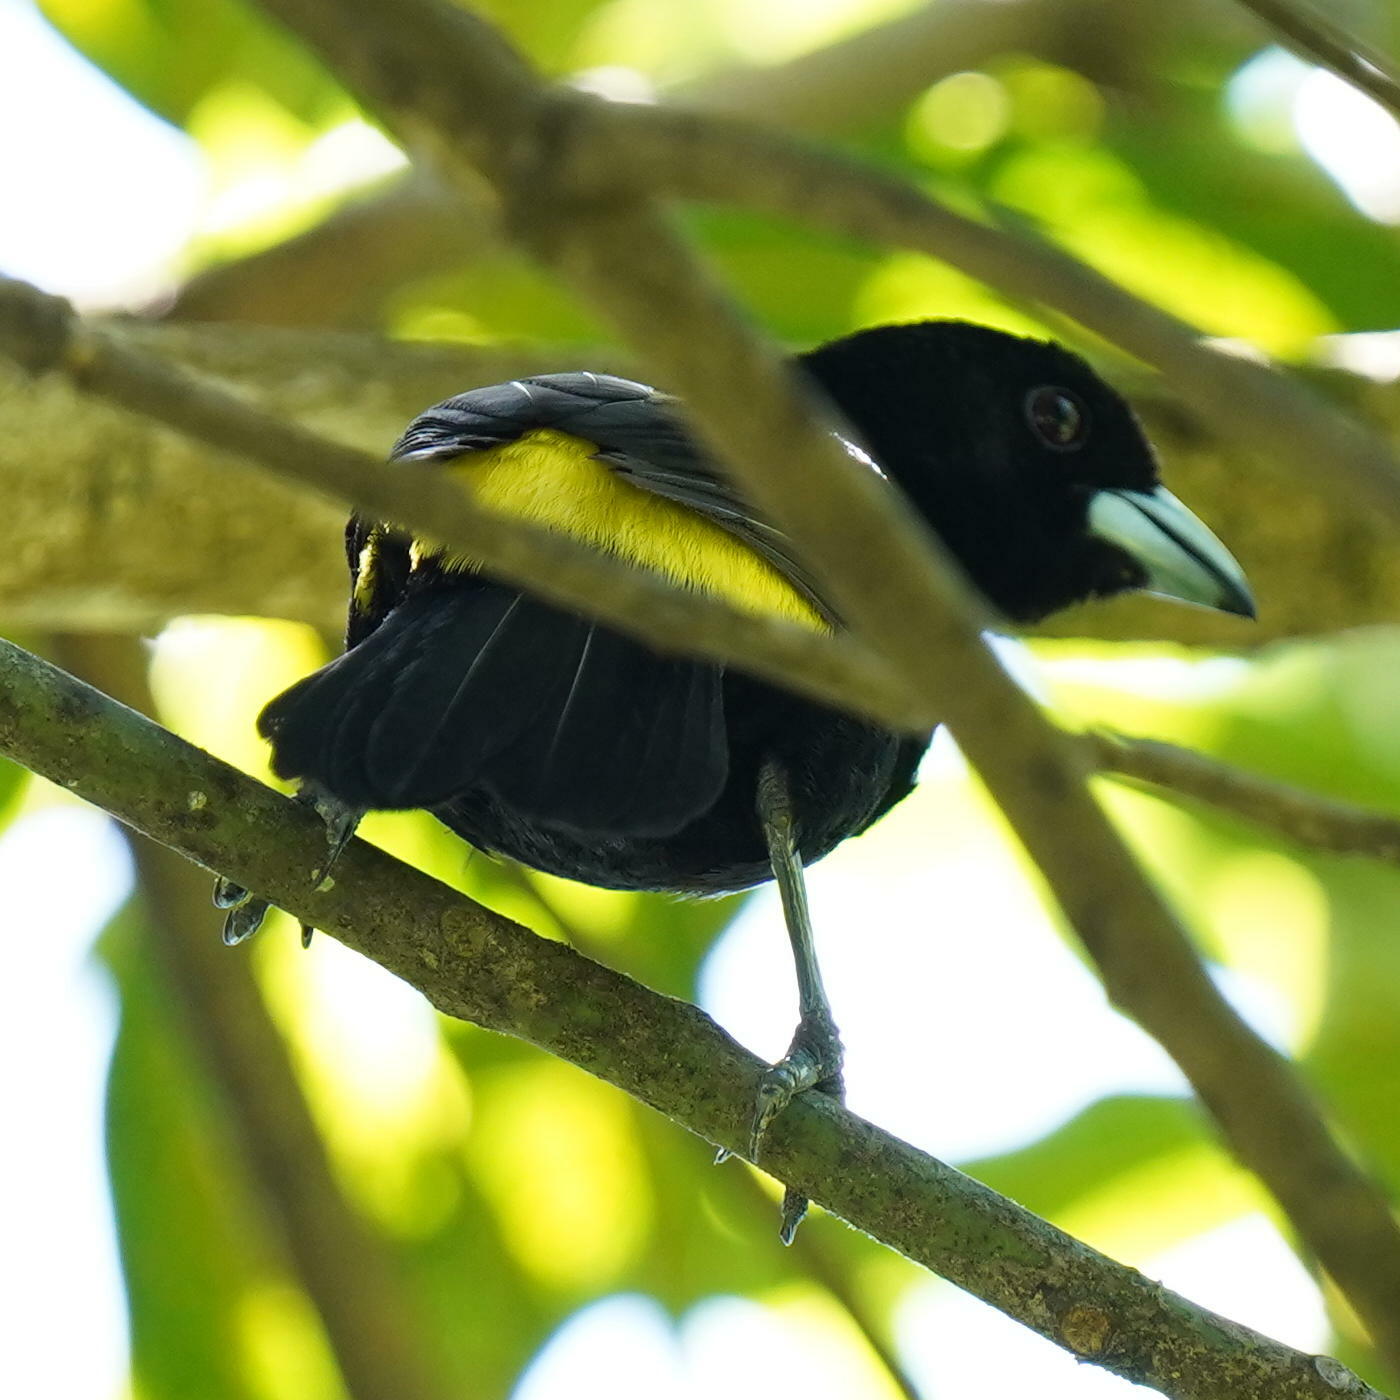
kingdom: Animalia
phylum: Chordata
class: Aves
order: Passeriformes
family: Thraupidae
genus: Ramphocelus
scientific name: Ramphocelus icteronotus
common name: Lemon-rumped tanager
